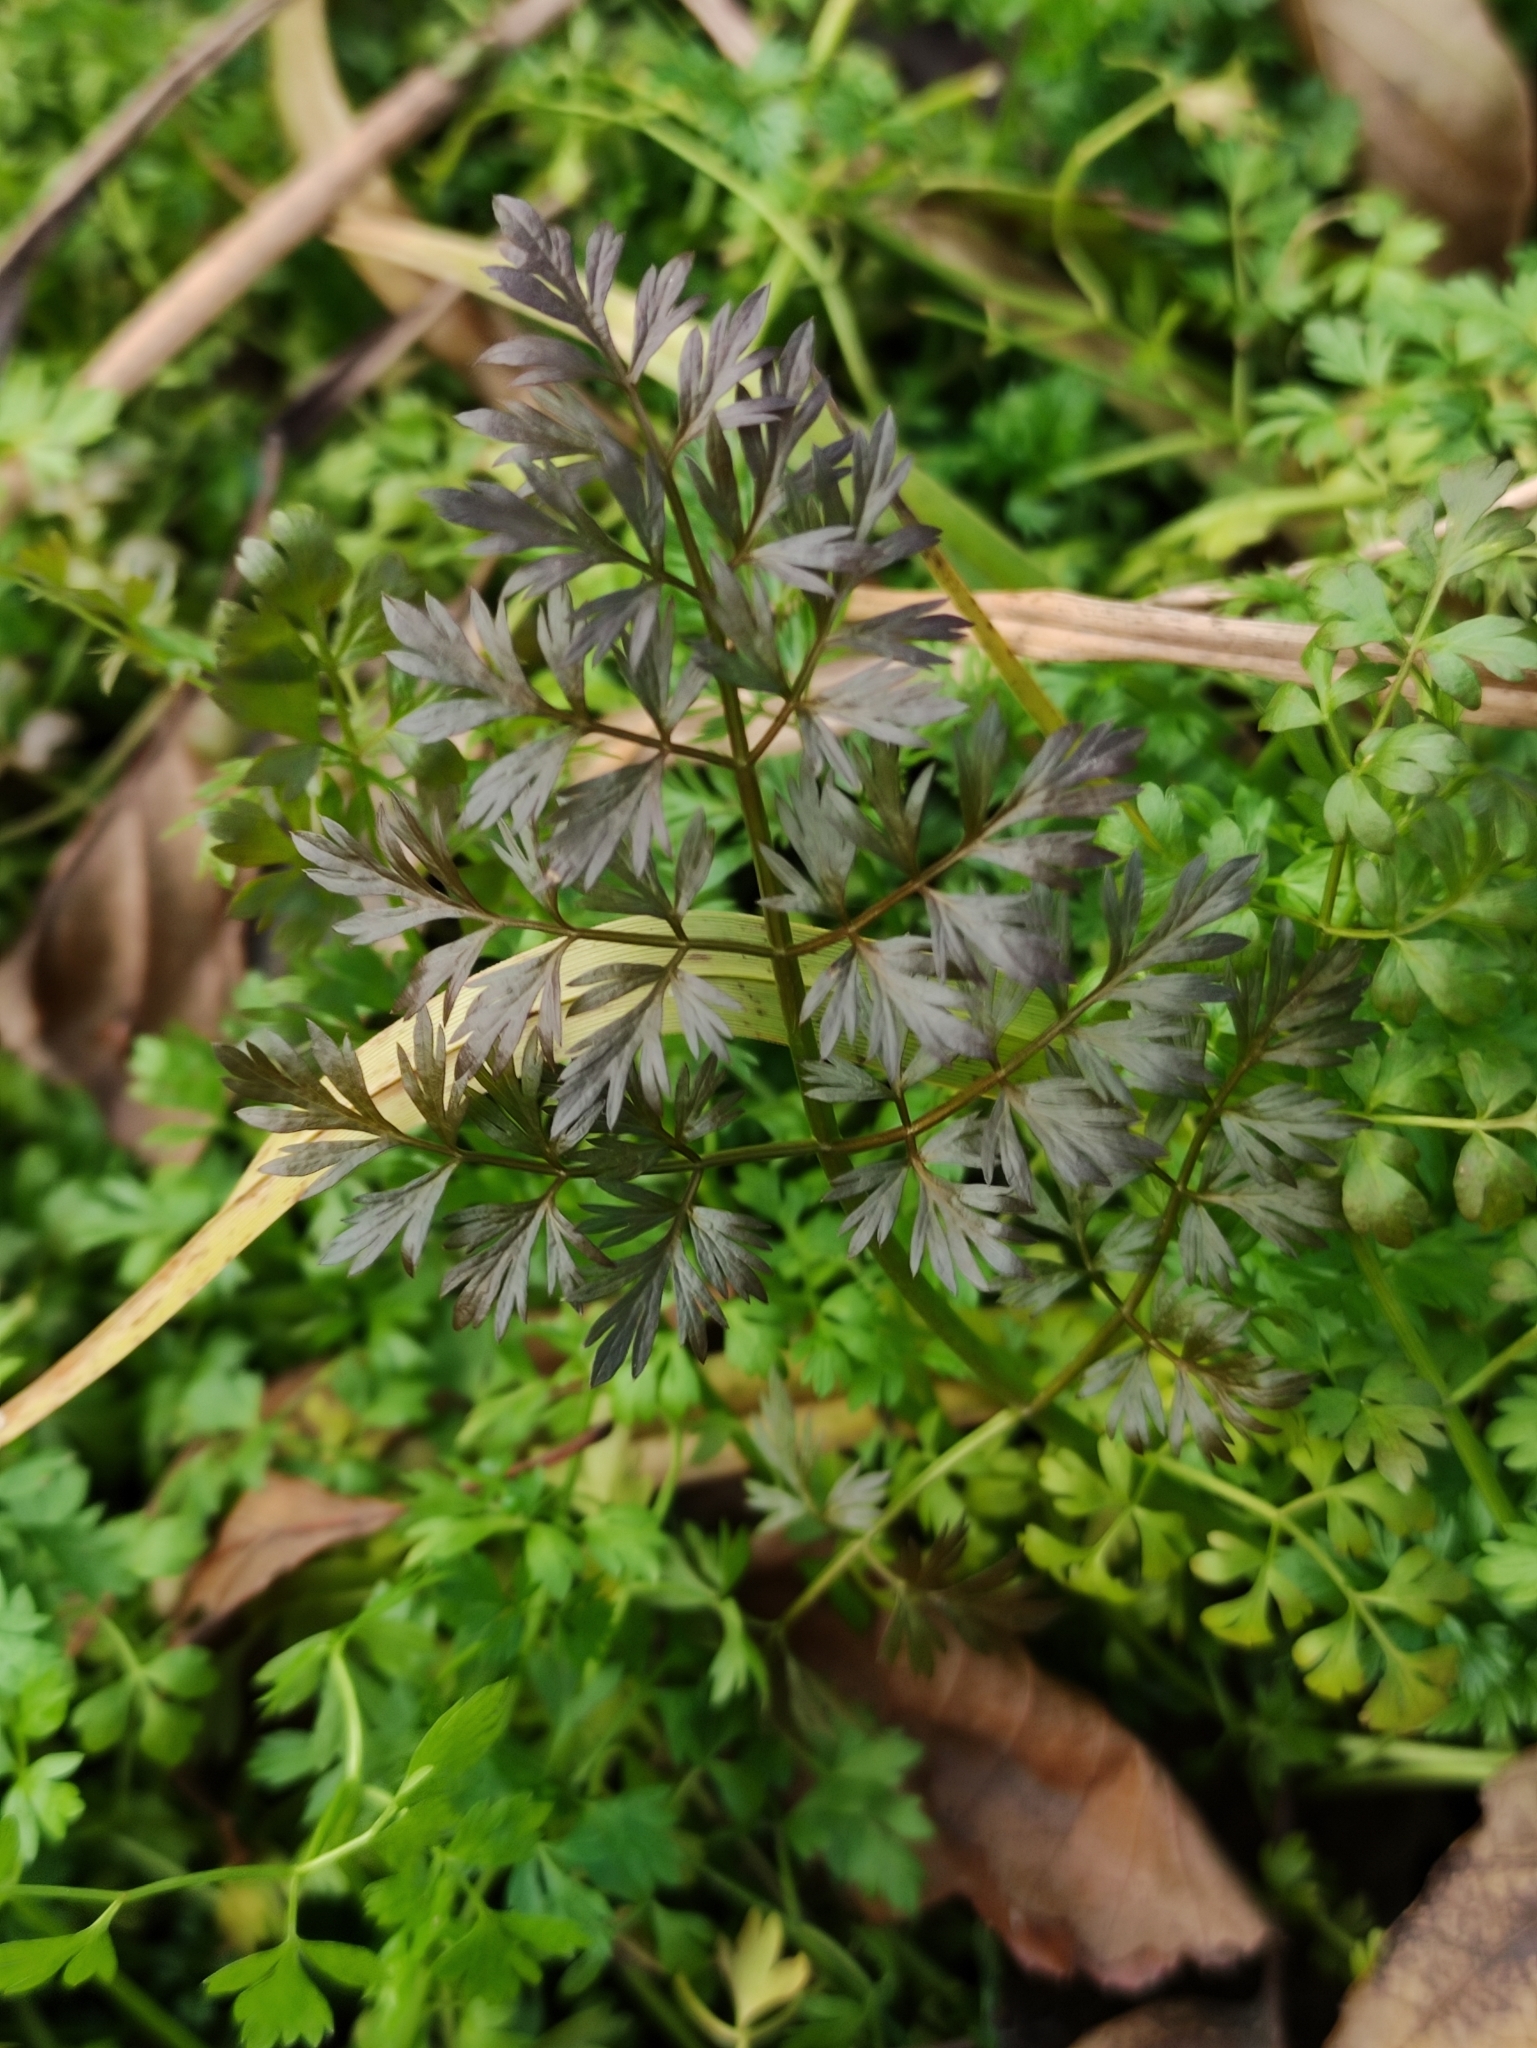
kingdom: Plantae
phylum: Tracheophyta
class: Magnoliopsida
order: Apiales
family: Apiaceae
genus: Oenanthe
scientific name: Oenanthe aquatica
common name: Fine-leaved water-dropwort
